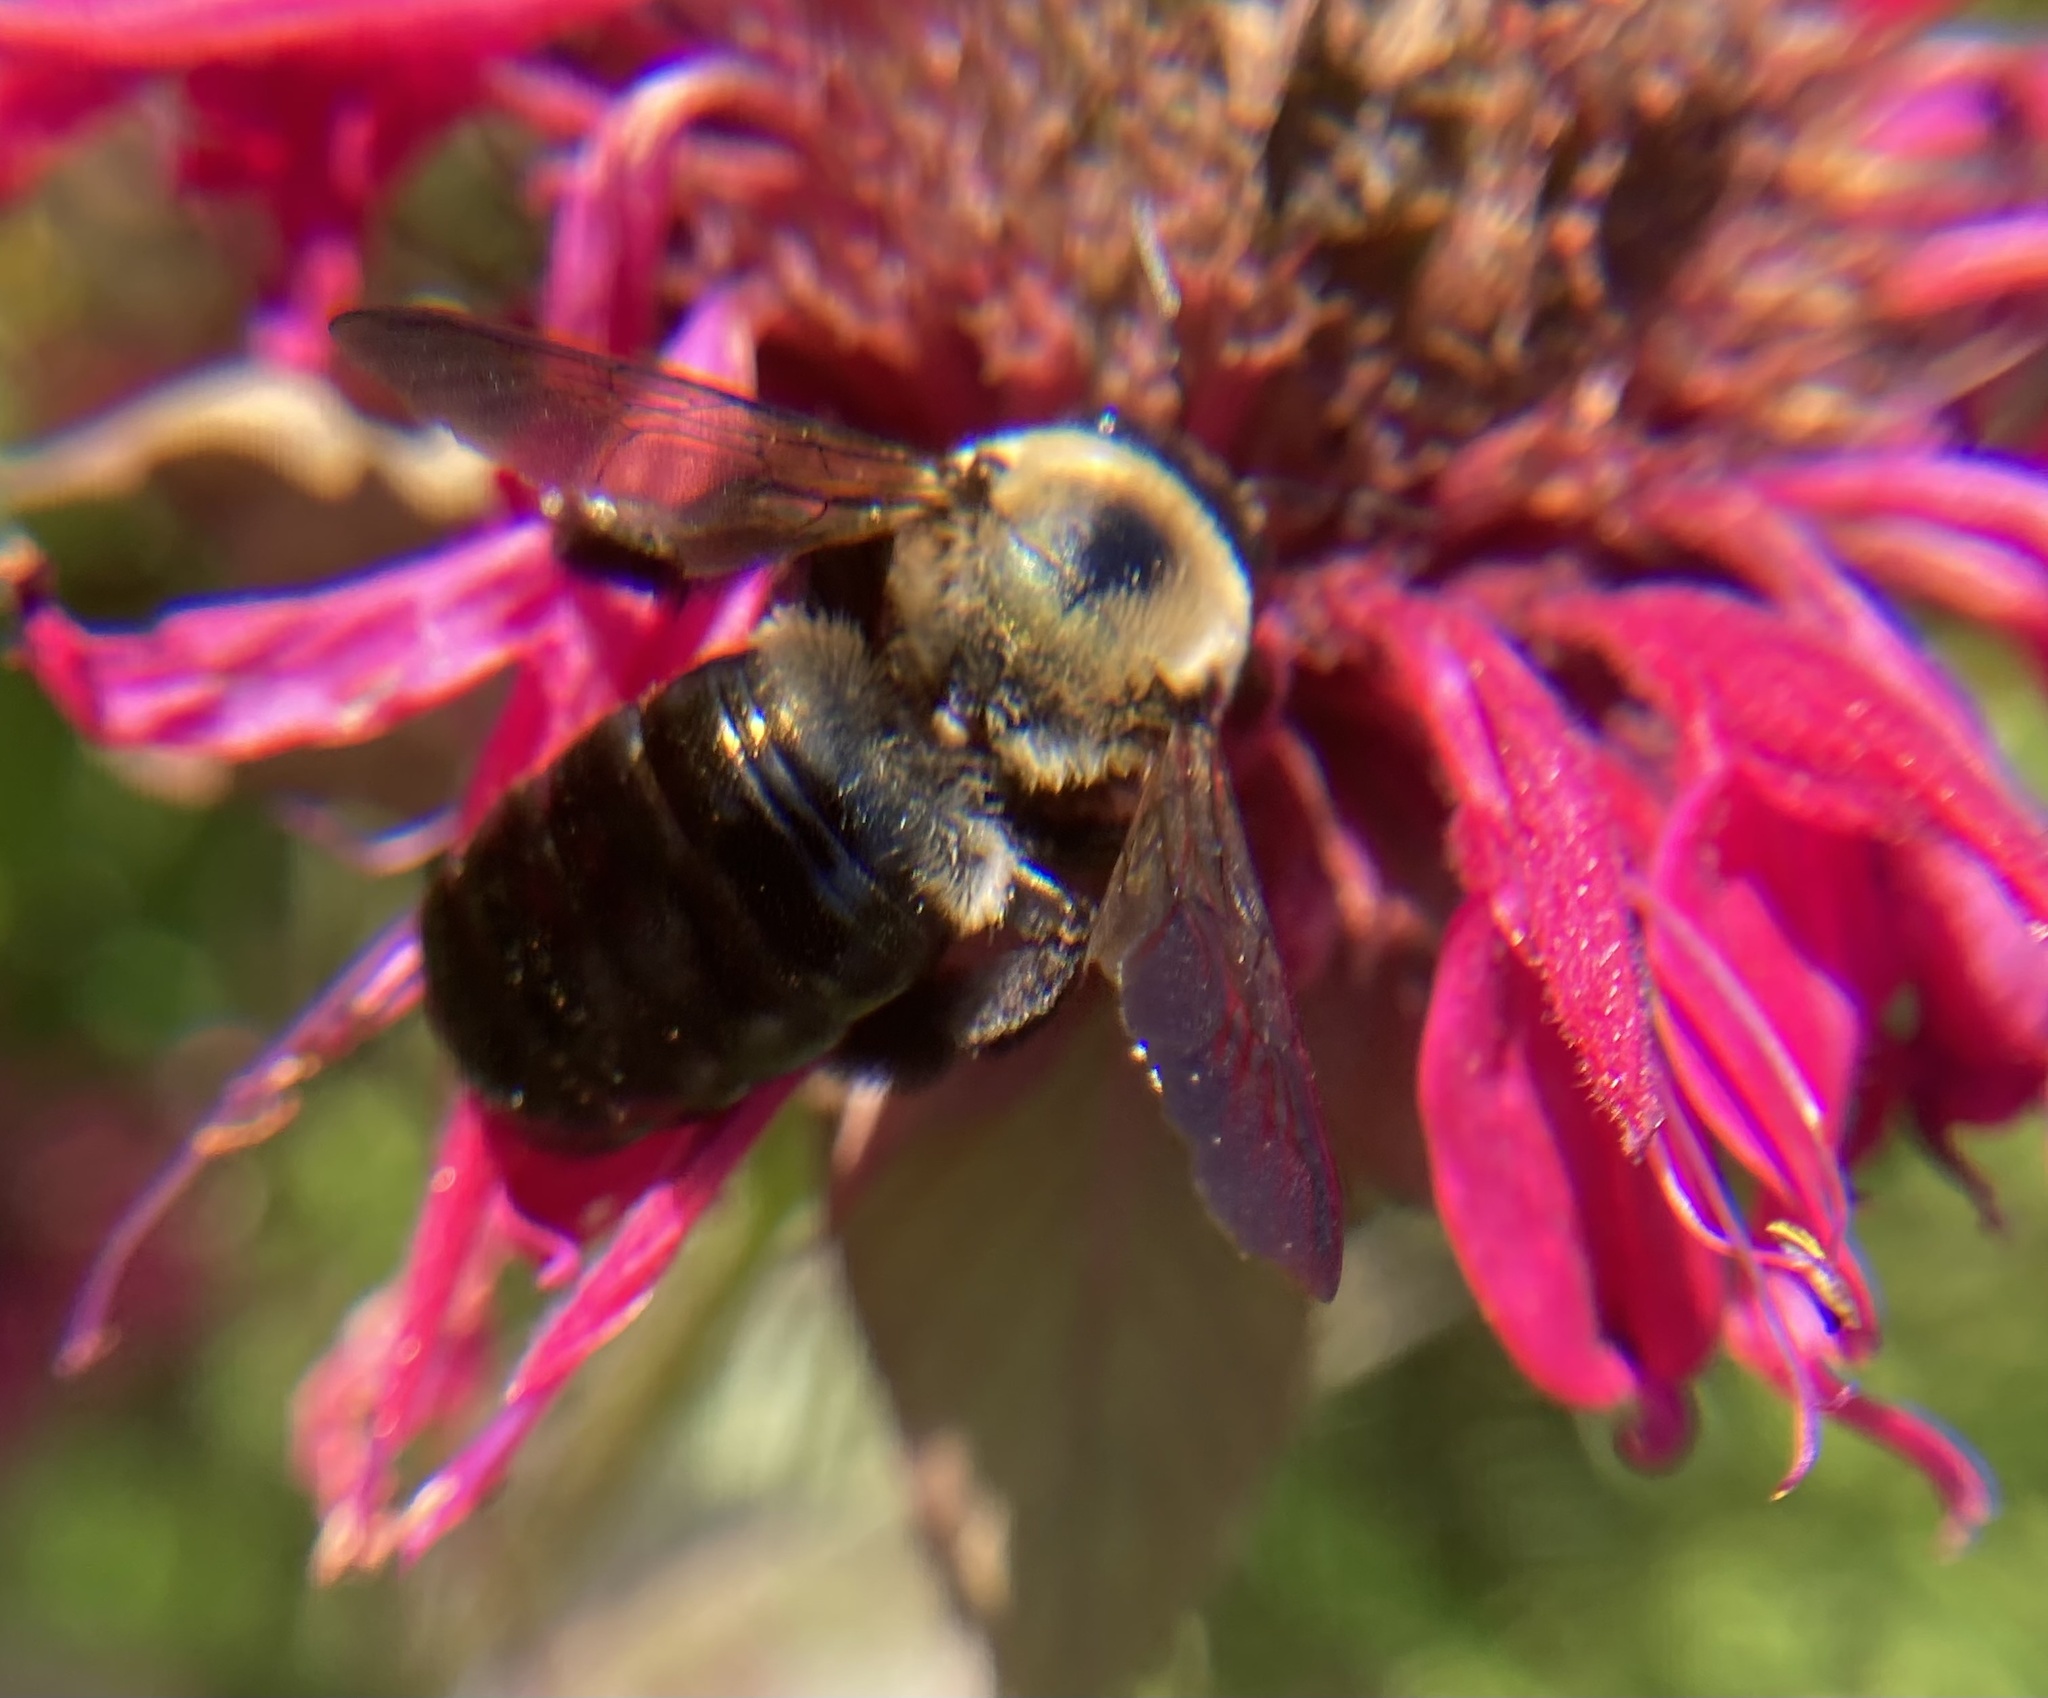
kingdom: Animalia
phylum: Arthropoda
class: Insecta
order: Hymenoptera
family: Apidae
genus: Xylocopa
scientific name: Xylocopa virginica
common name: Carpenter bee
